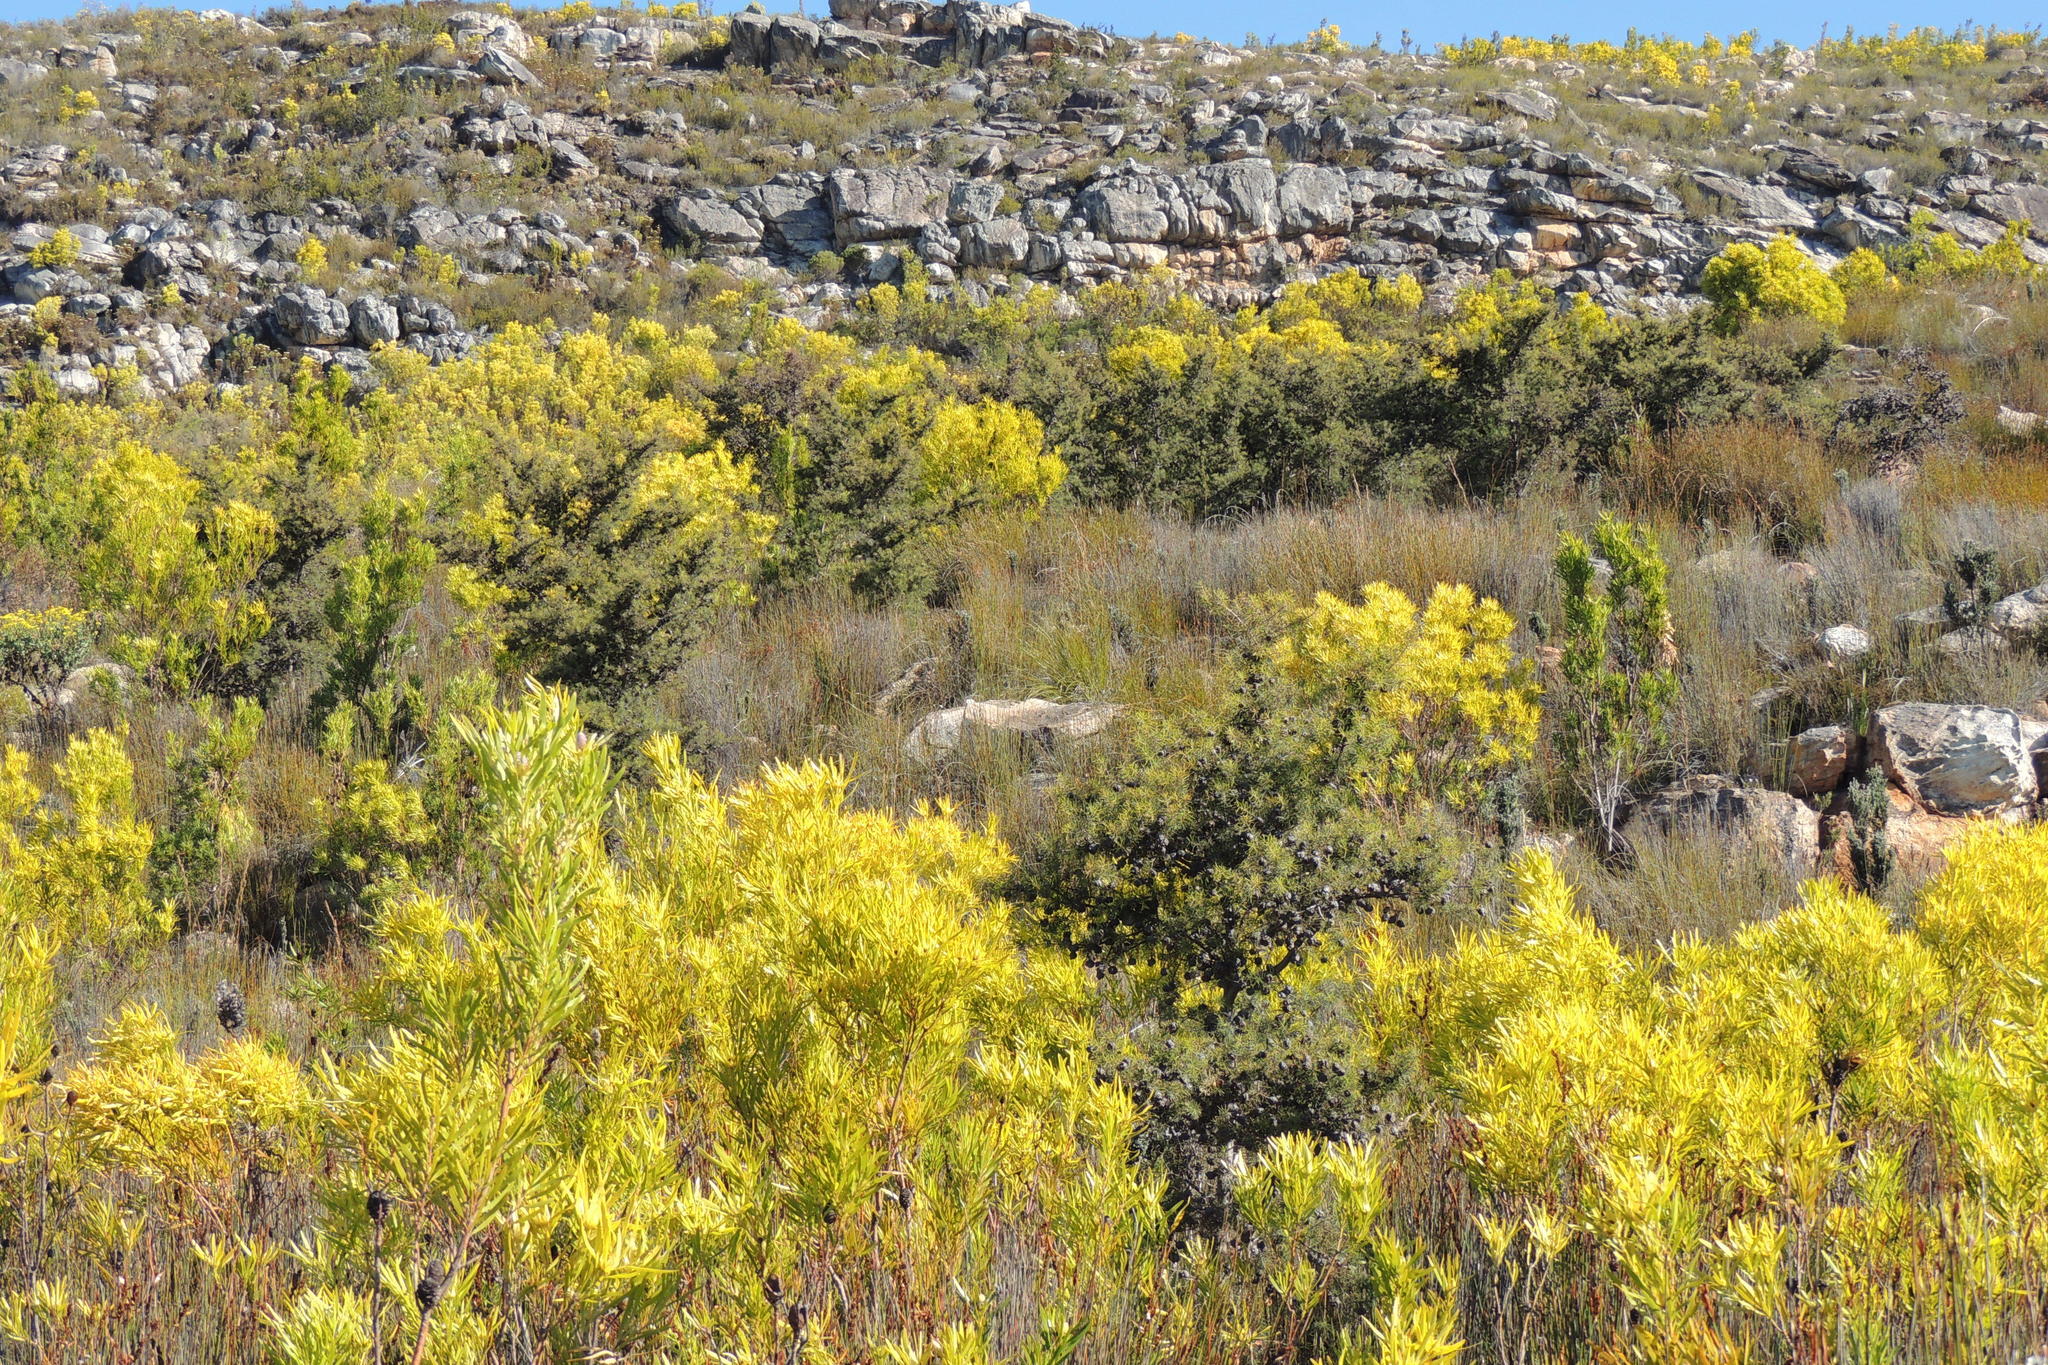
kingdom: Plantae
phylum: Tracheophyta
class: Magnoliopsida
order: Proteales
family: Proteaceae
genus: Hakea
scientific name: Hakea sericea
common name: Needle bush
